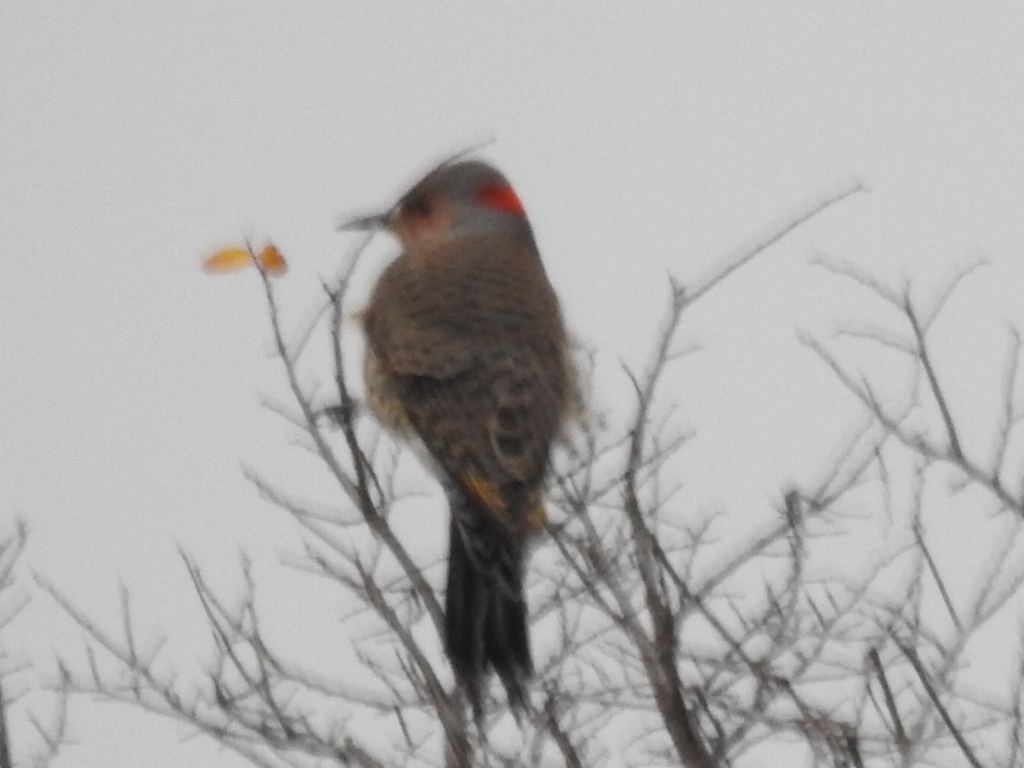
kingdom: Animalia
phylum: Chordata
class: Aves
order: Piciformes
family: Picidae
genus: Colaptes
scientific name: Colaptes auratus
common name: Northern flicker
